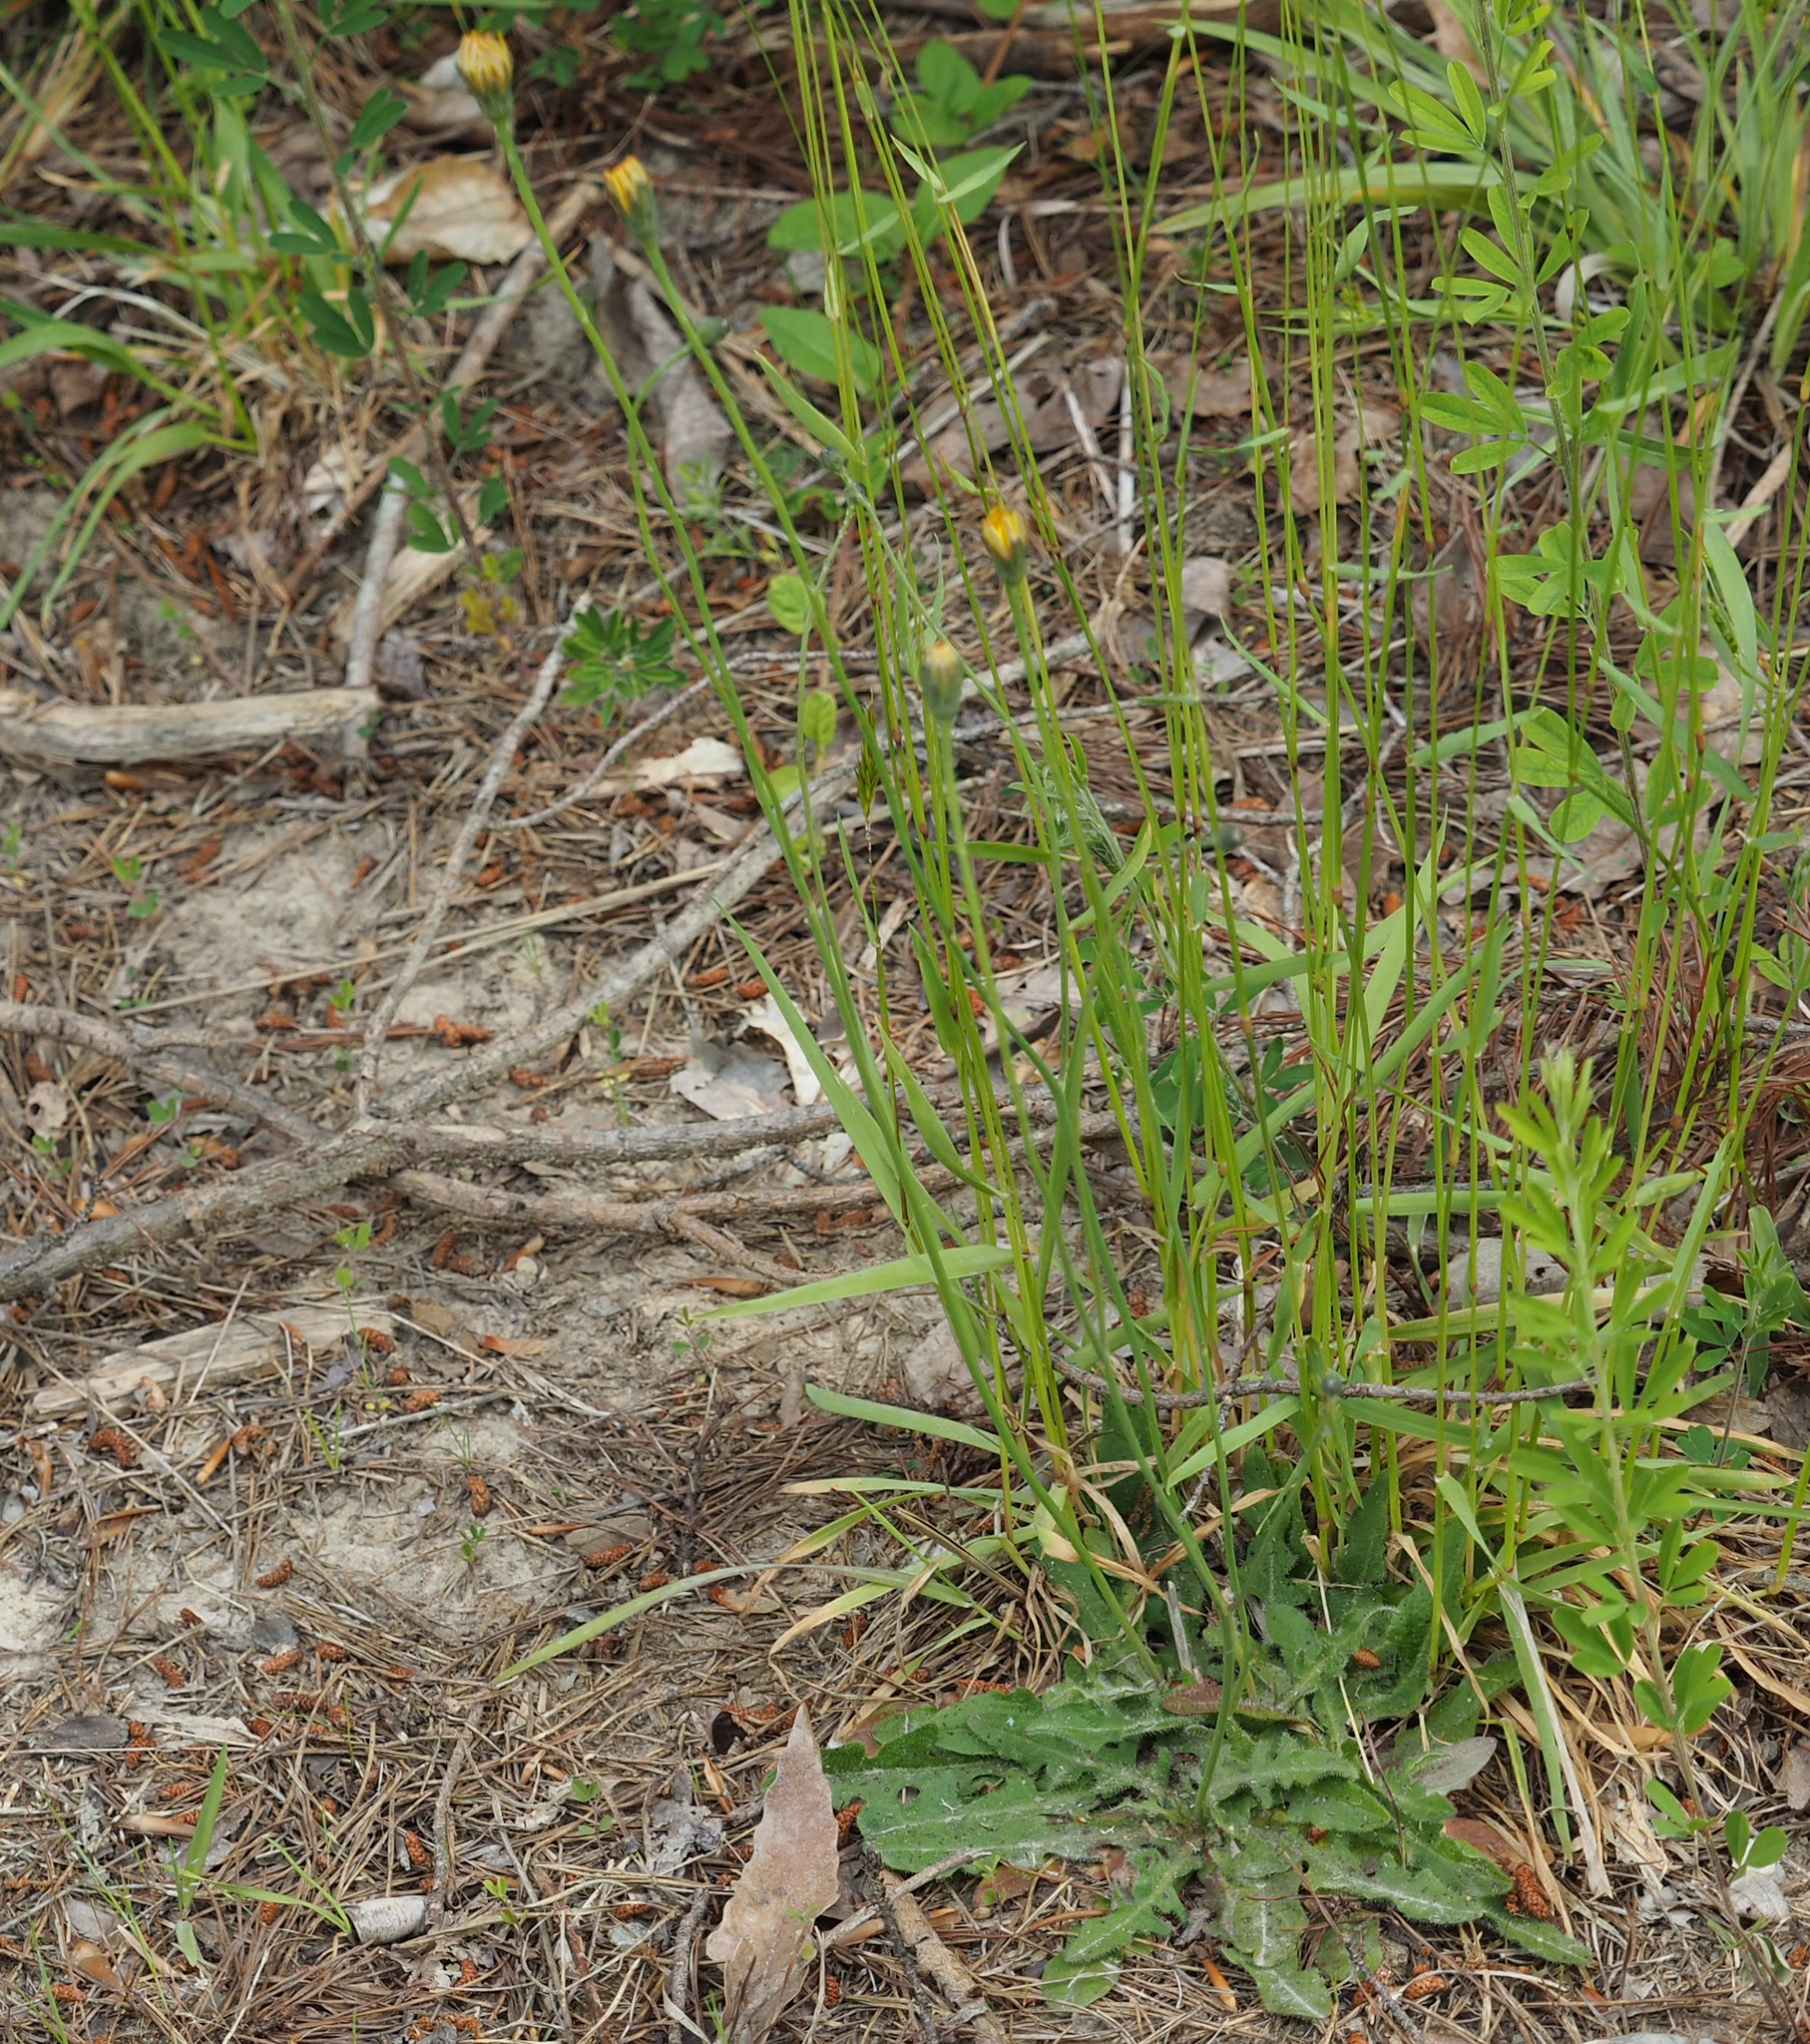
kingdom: Plantae
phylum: Tracheophyta
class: Magnoliopsida
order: Asterales
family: Asteraceae
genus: Hypochaeris
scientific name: Hypochaeris radicata
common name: Flatweed
